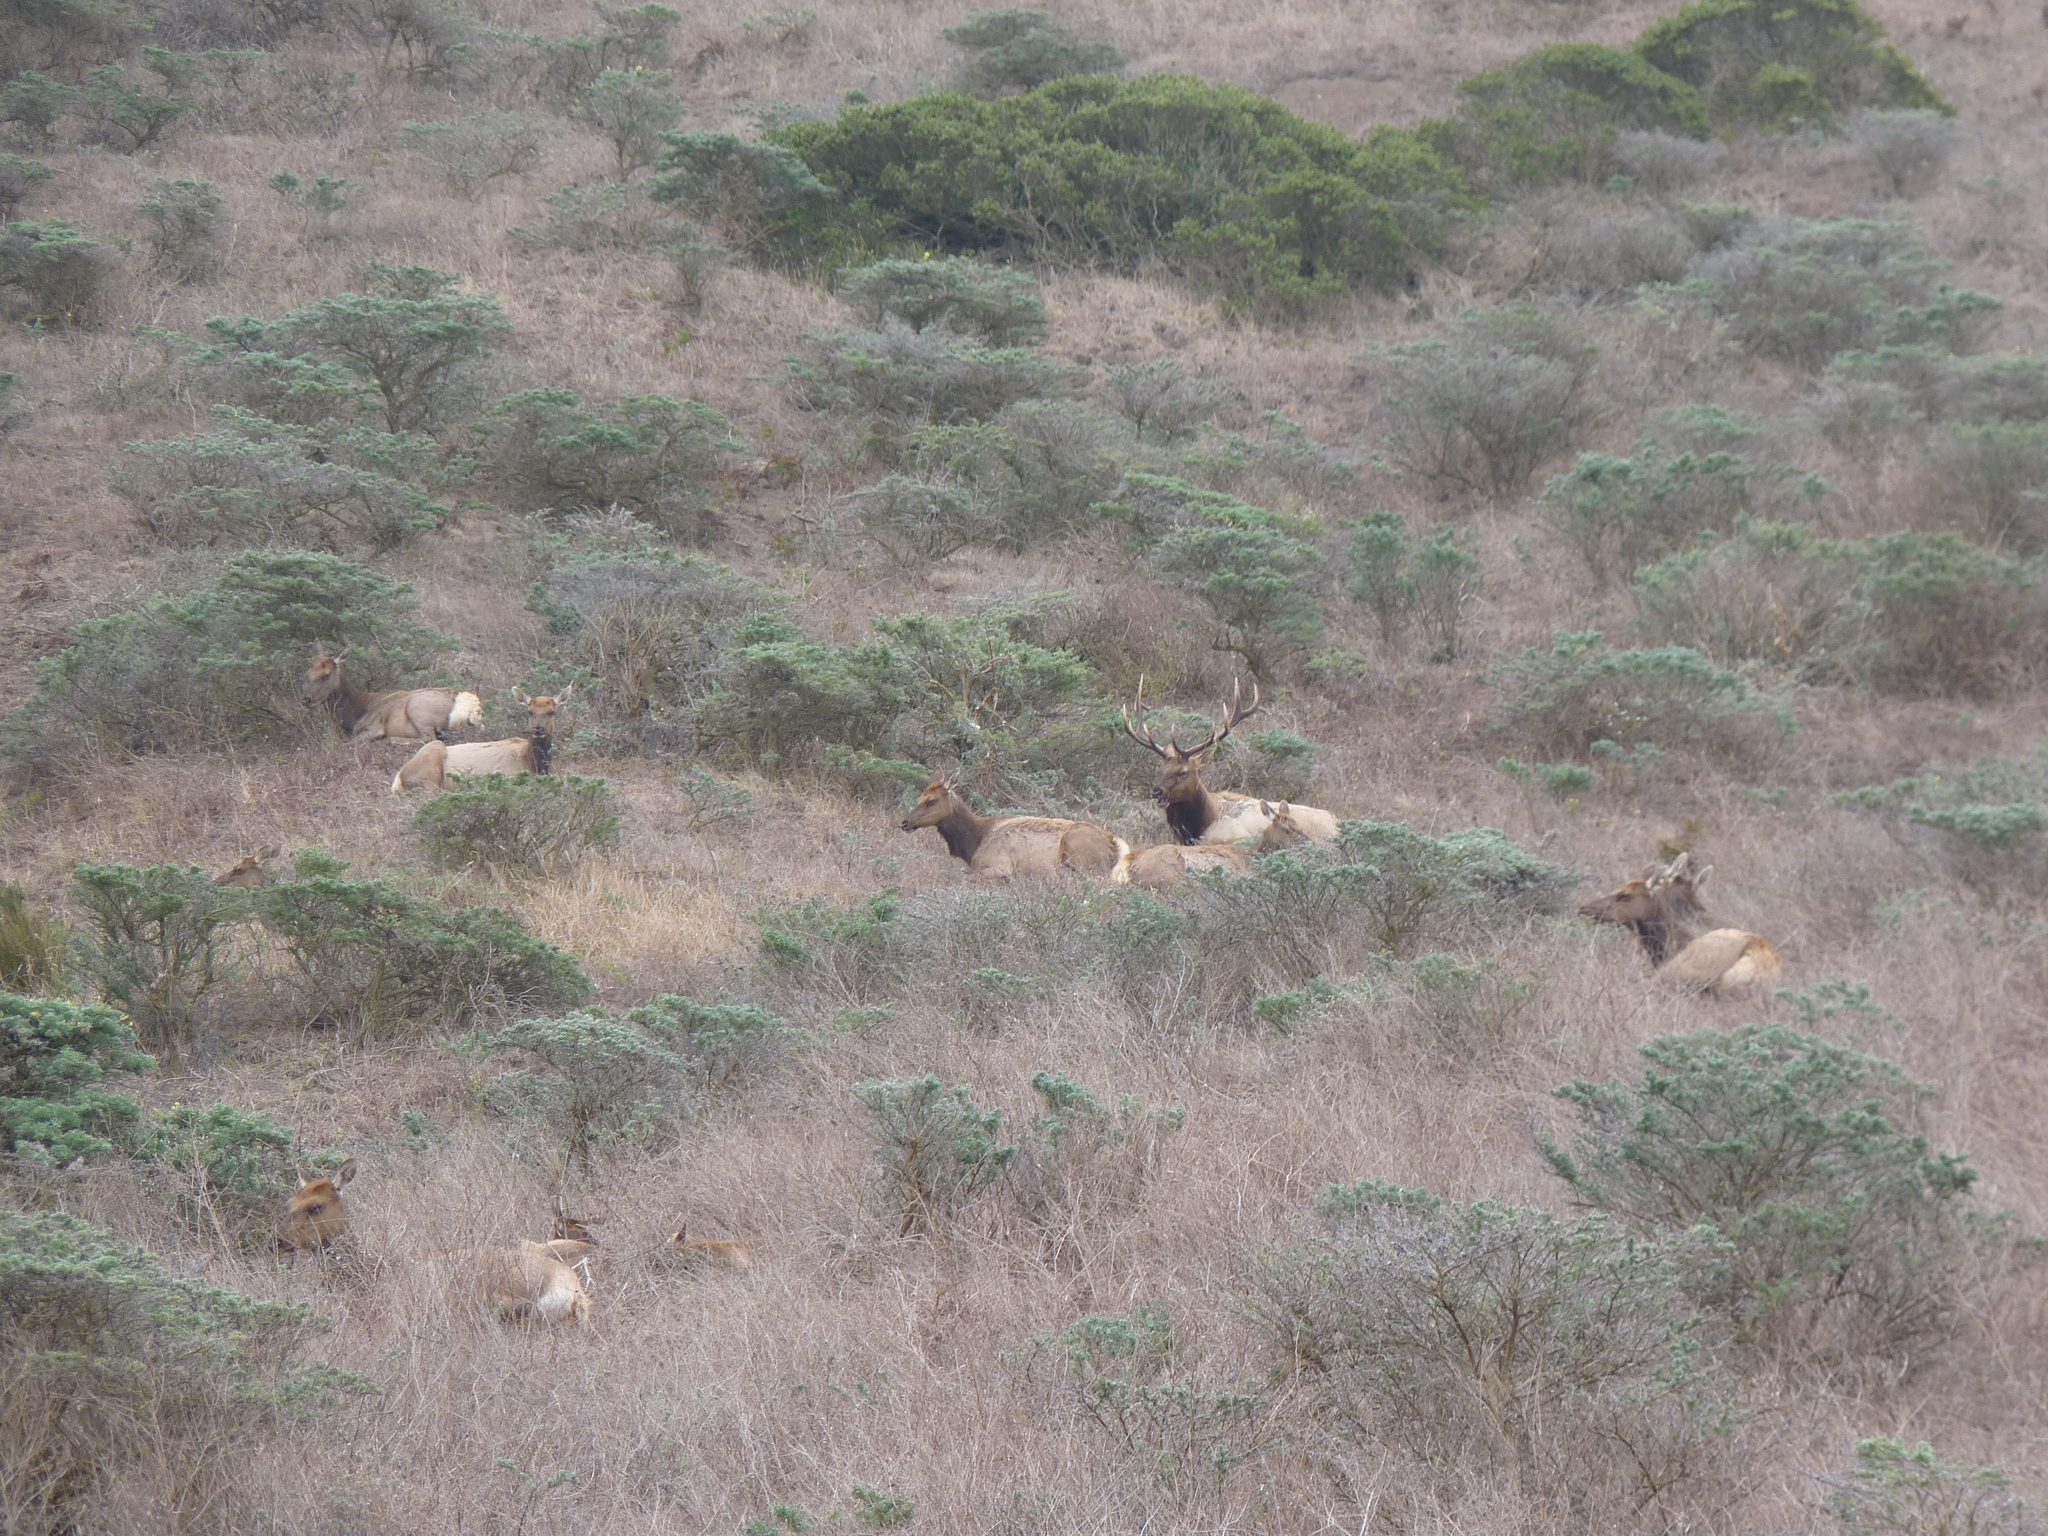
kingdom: Animalia
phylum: Chordata
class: Mammalia
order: Artiodactyla
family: Cervidae
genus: Cervus
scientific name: Cervus elaphus
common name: Red deer
